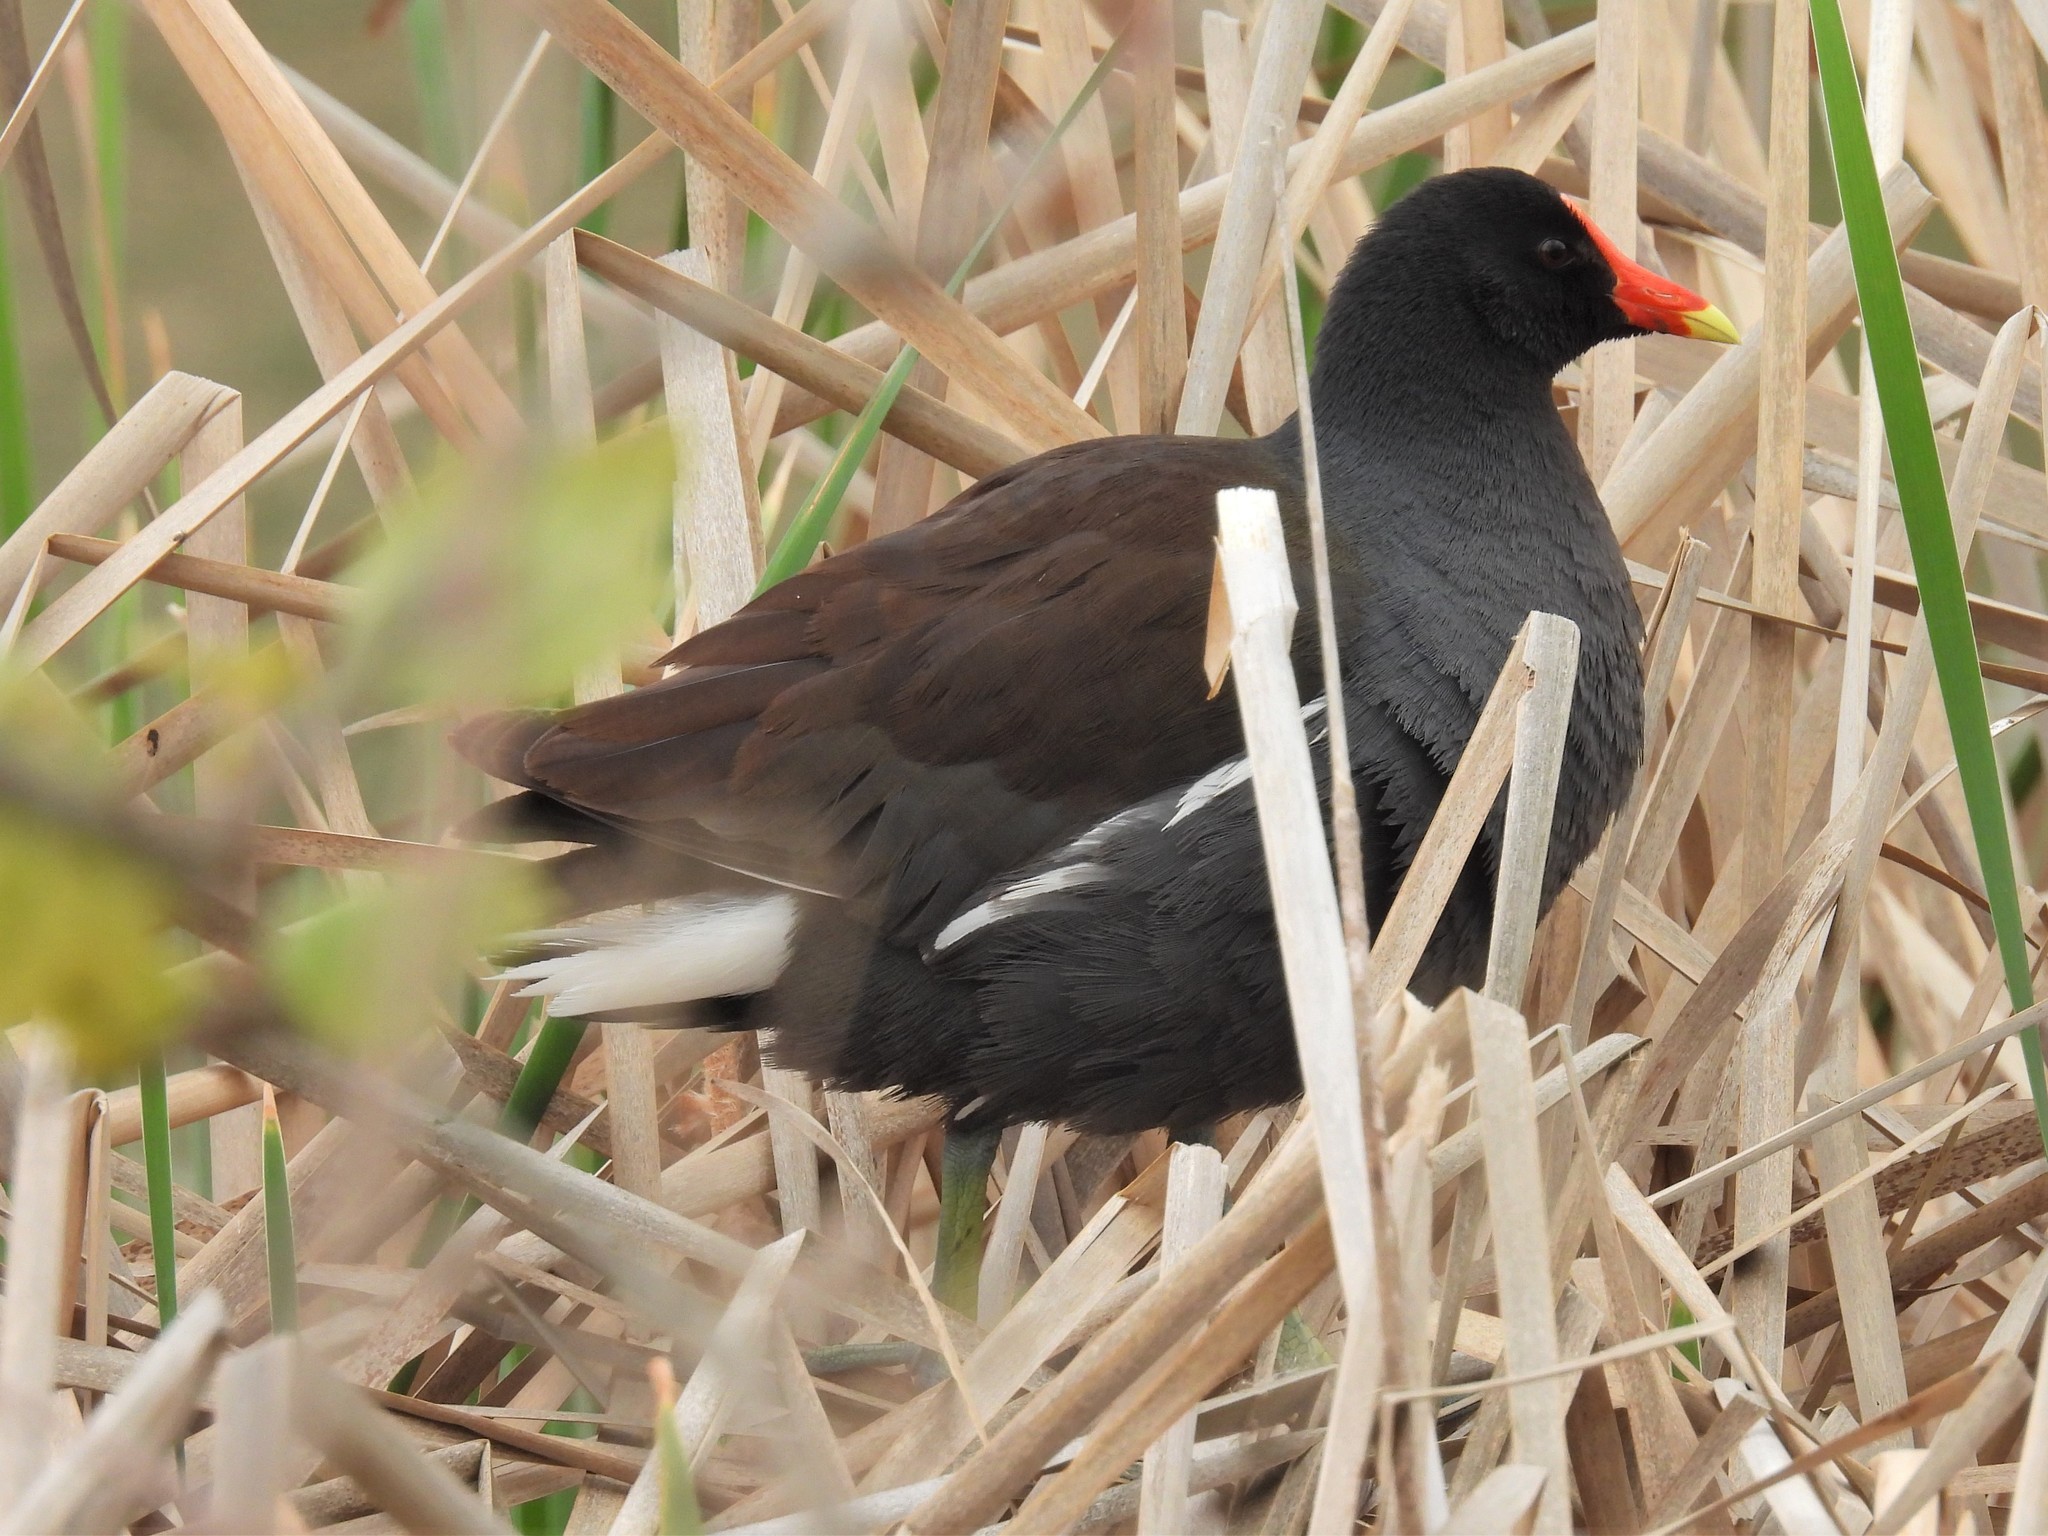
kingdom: Animalia
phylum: Chordata
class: Aves
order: Gruiformes
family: Rallidae
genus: Gallinula
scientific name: Gallinula chloropus
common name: Common moorhen
